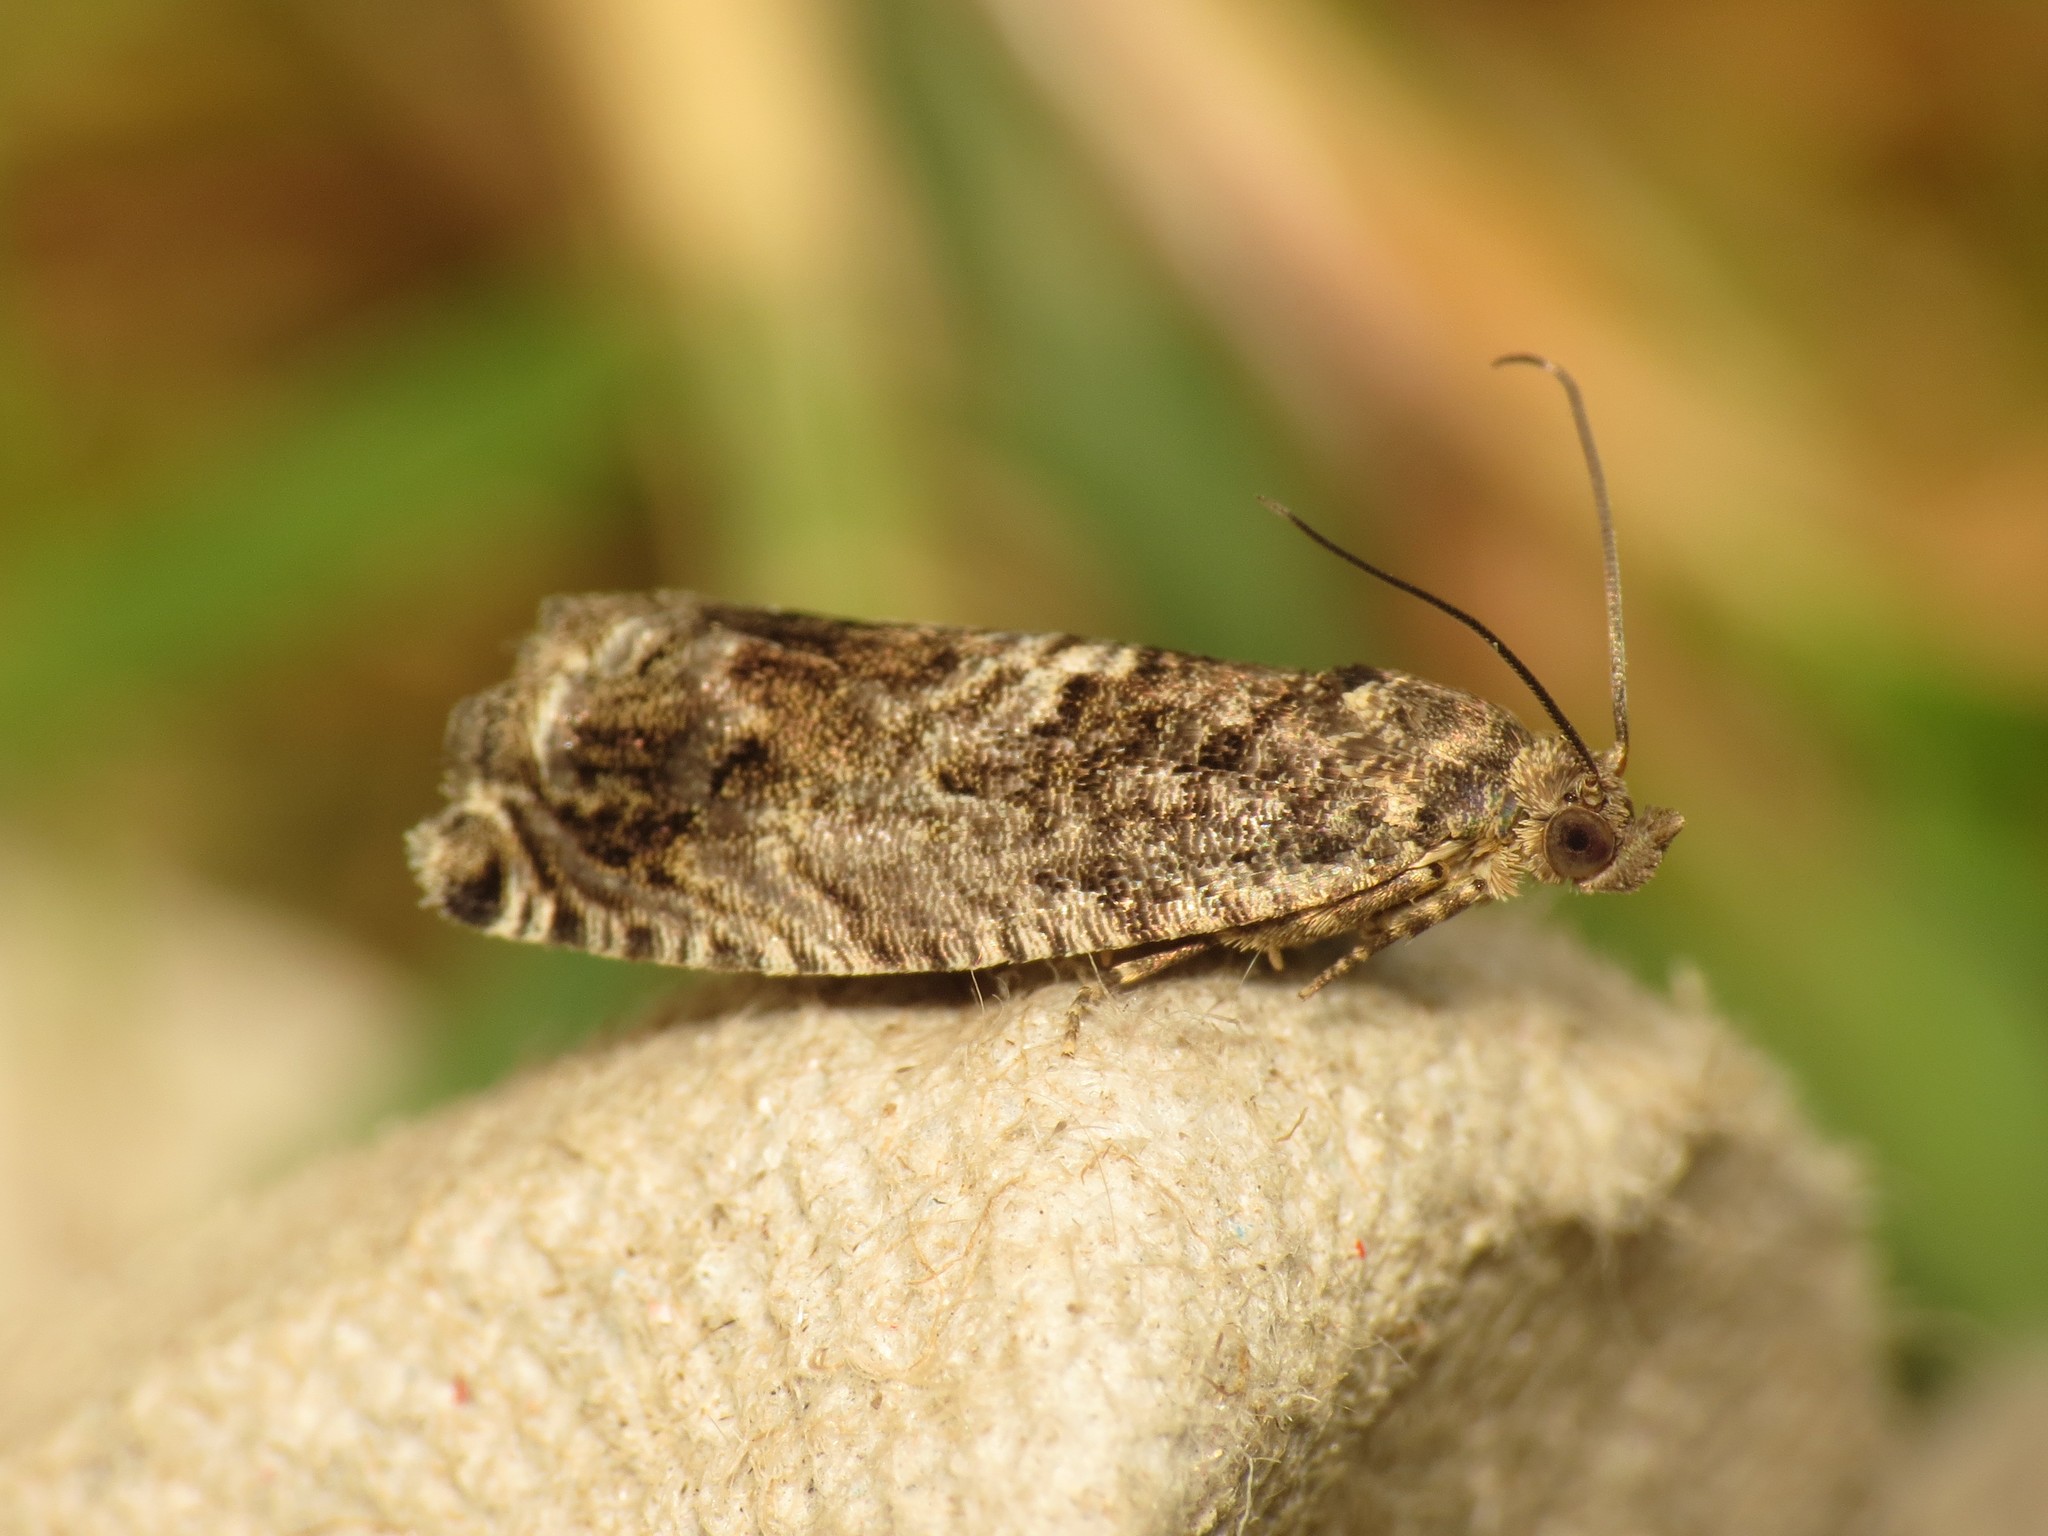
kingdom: Animalia
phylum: Arthropoda
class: Insecta
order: Lepidoptera
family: Tortricidae
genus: Cydia
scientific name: Cydia fagiglandana
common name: Large beech piercer
